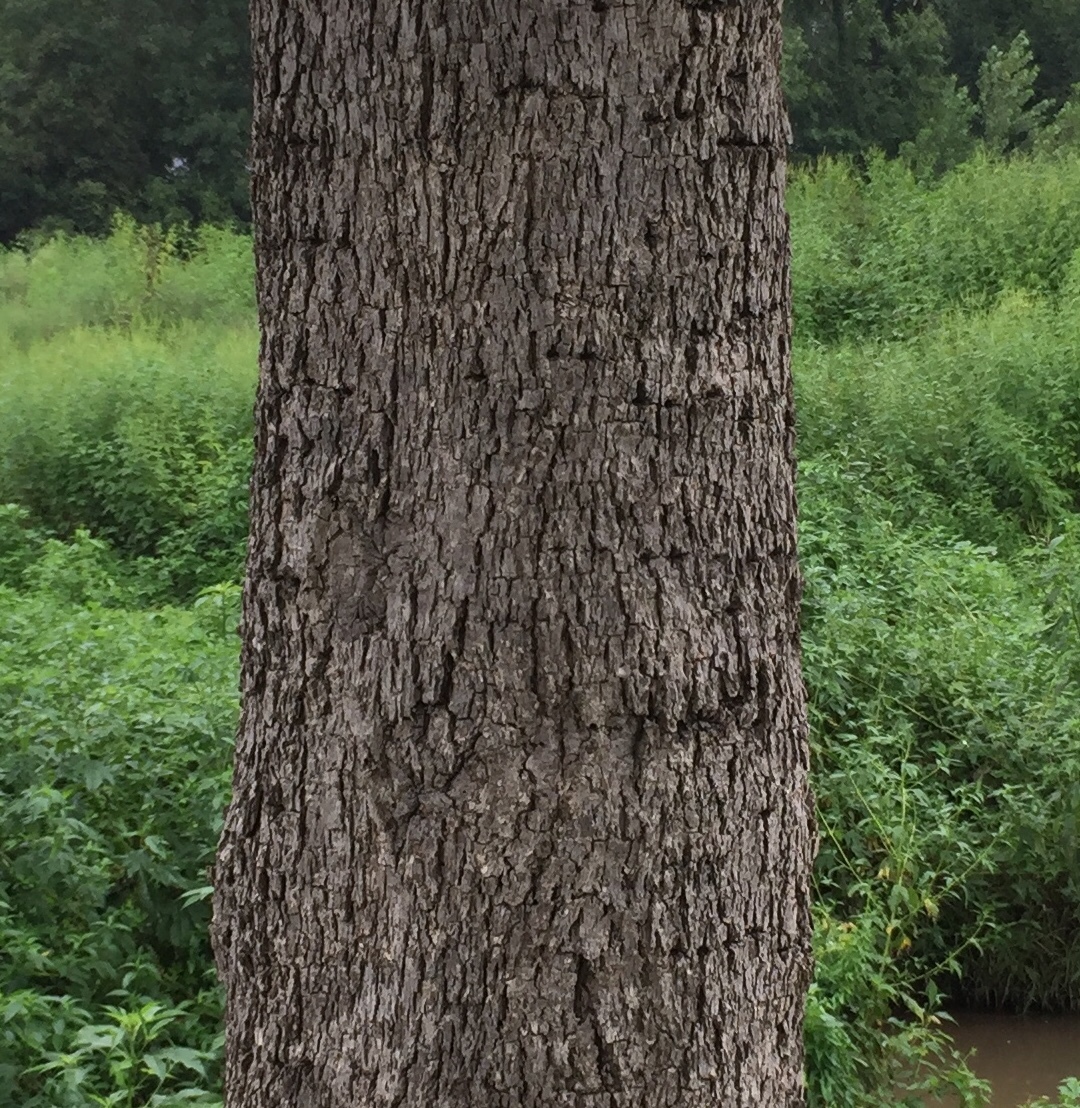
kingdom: Plantae
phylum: Tracheophyta
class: Magnoliopsida
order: Fagales
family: Juglandaceae
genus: Carya
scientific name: Carya illinoinensis
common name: Pecan
